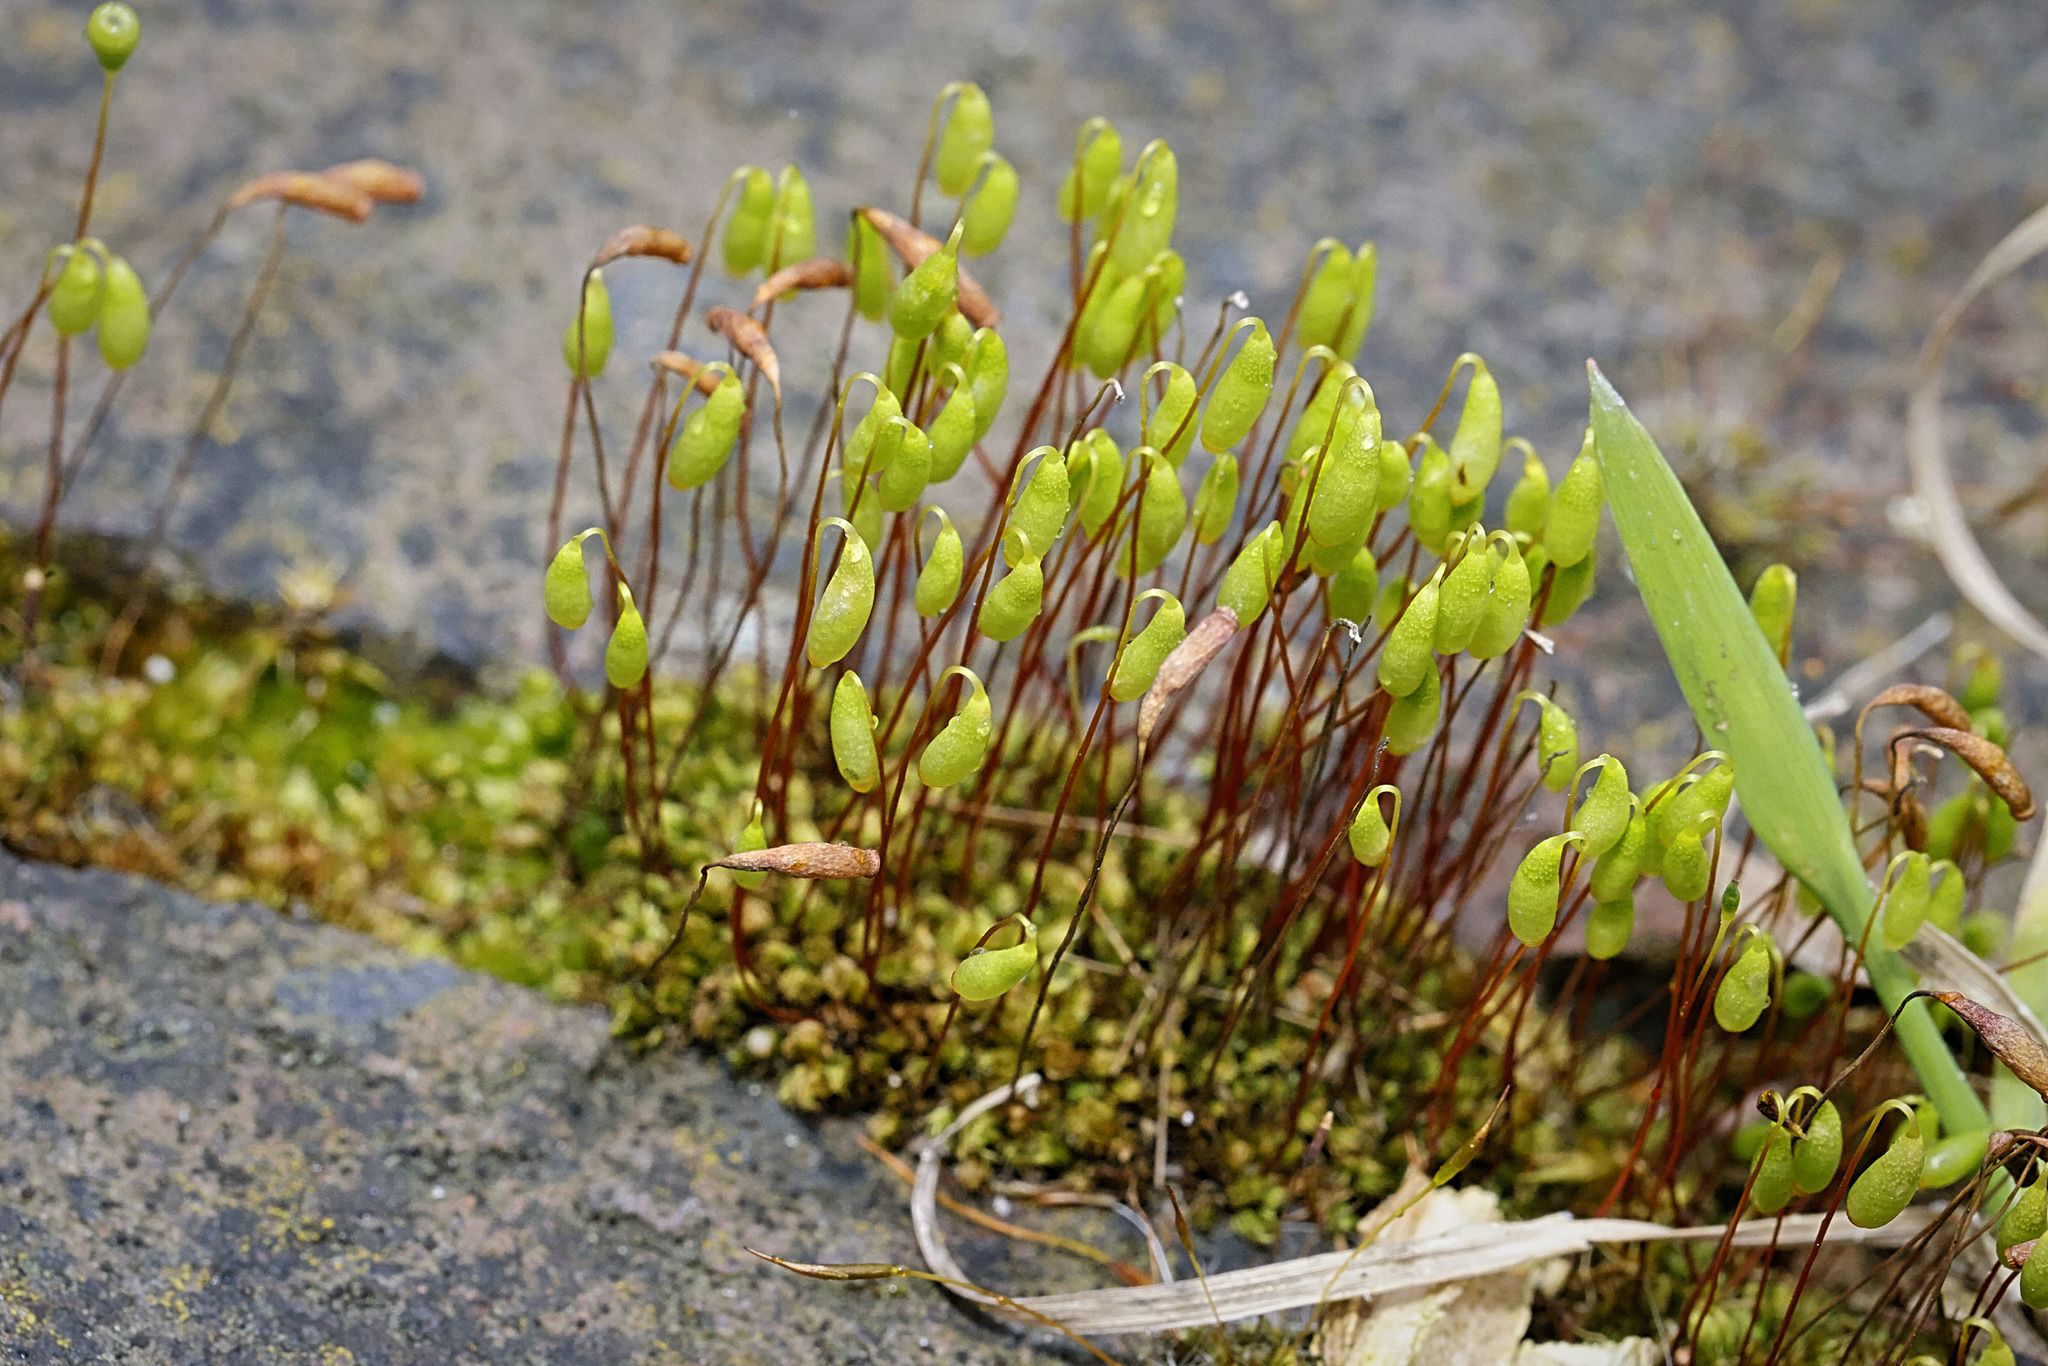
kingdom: Plantae
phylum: Bryophyta
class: Bryopsida
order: Bryales
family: Bryaceae
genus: Rosulabryum
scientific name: Rosulabryum capillare
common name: Capillary thread-moss
